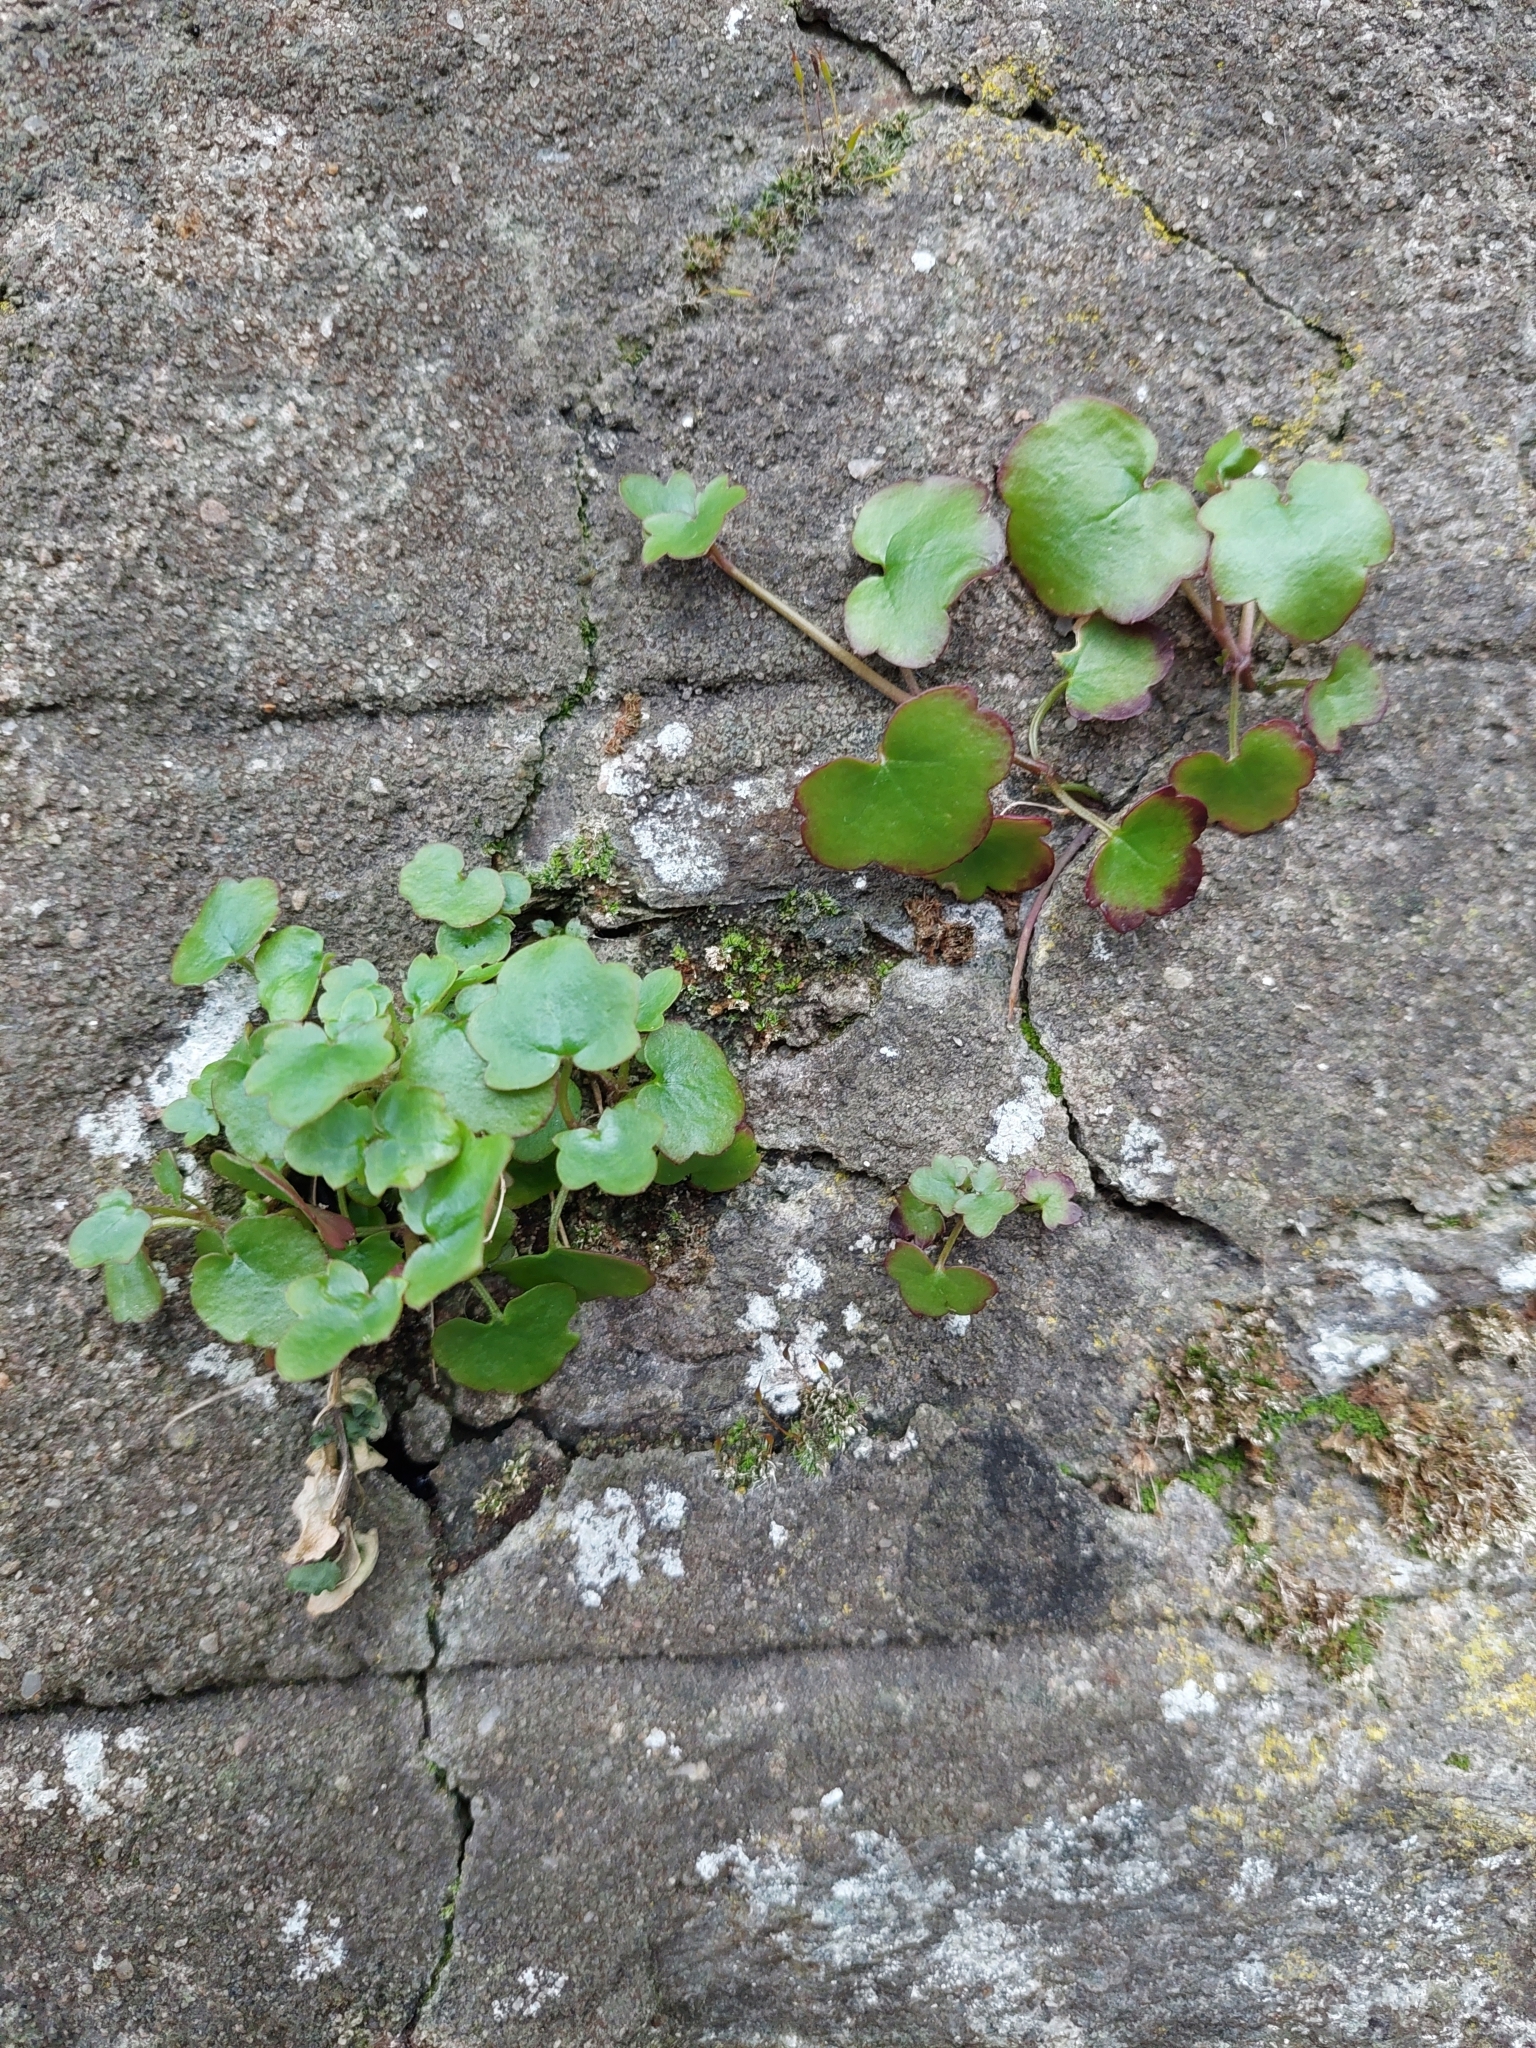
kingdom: Plantae
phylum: Tracheophyta
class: Magnoliopsida
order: Lamiales
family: Plantaginaceae
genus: Cymbalaria
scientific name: Cymbalaria muralis
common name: Ivy-leaved toadflax
